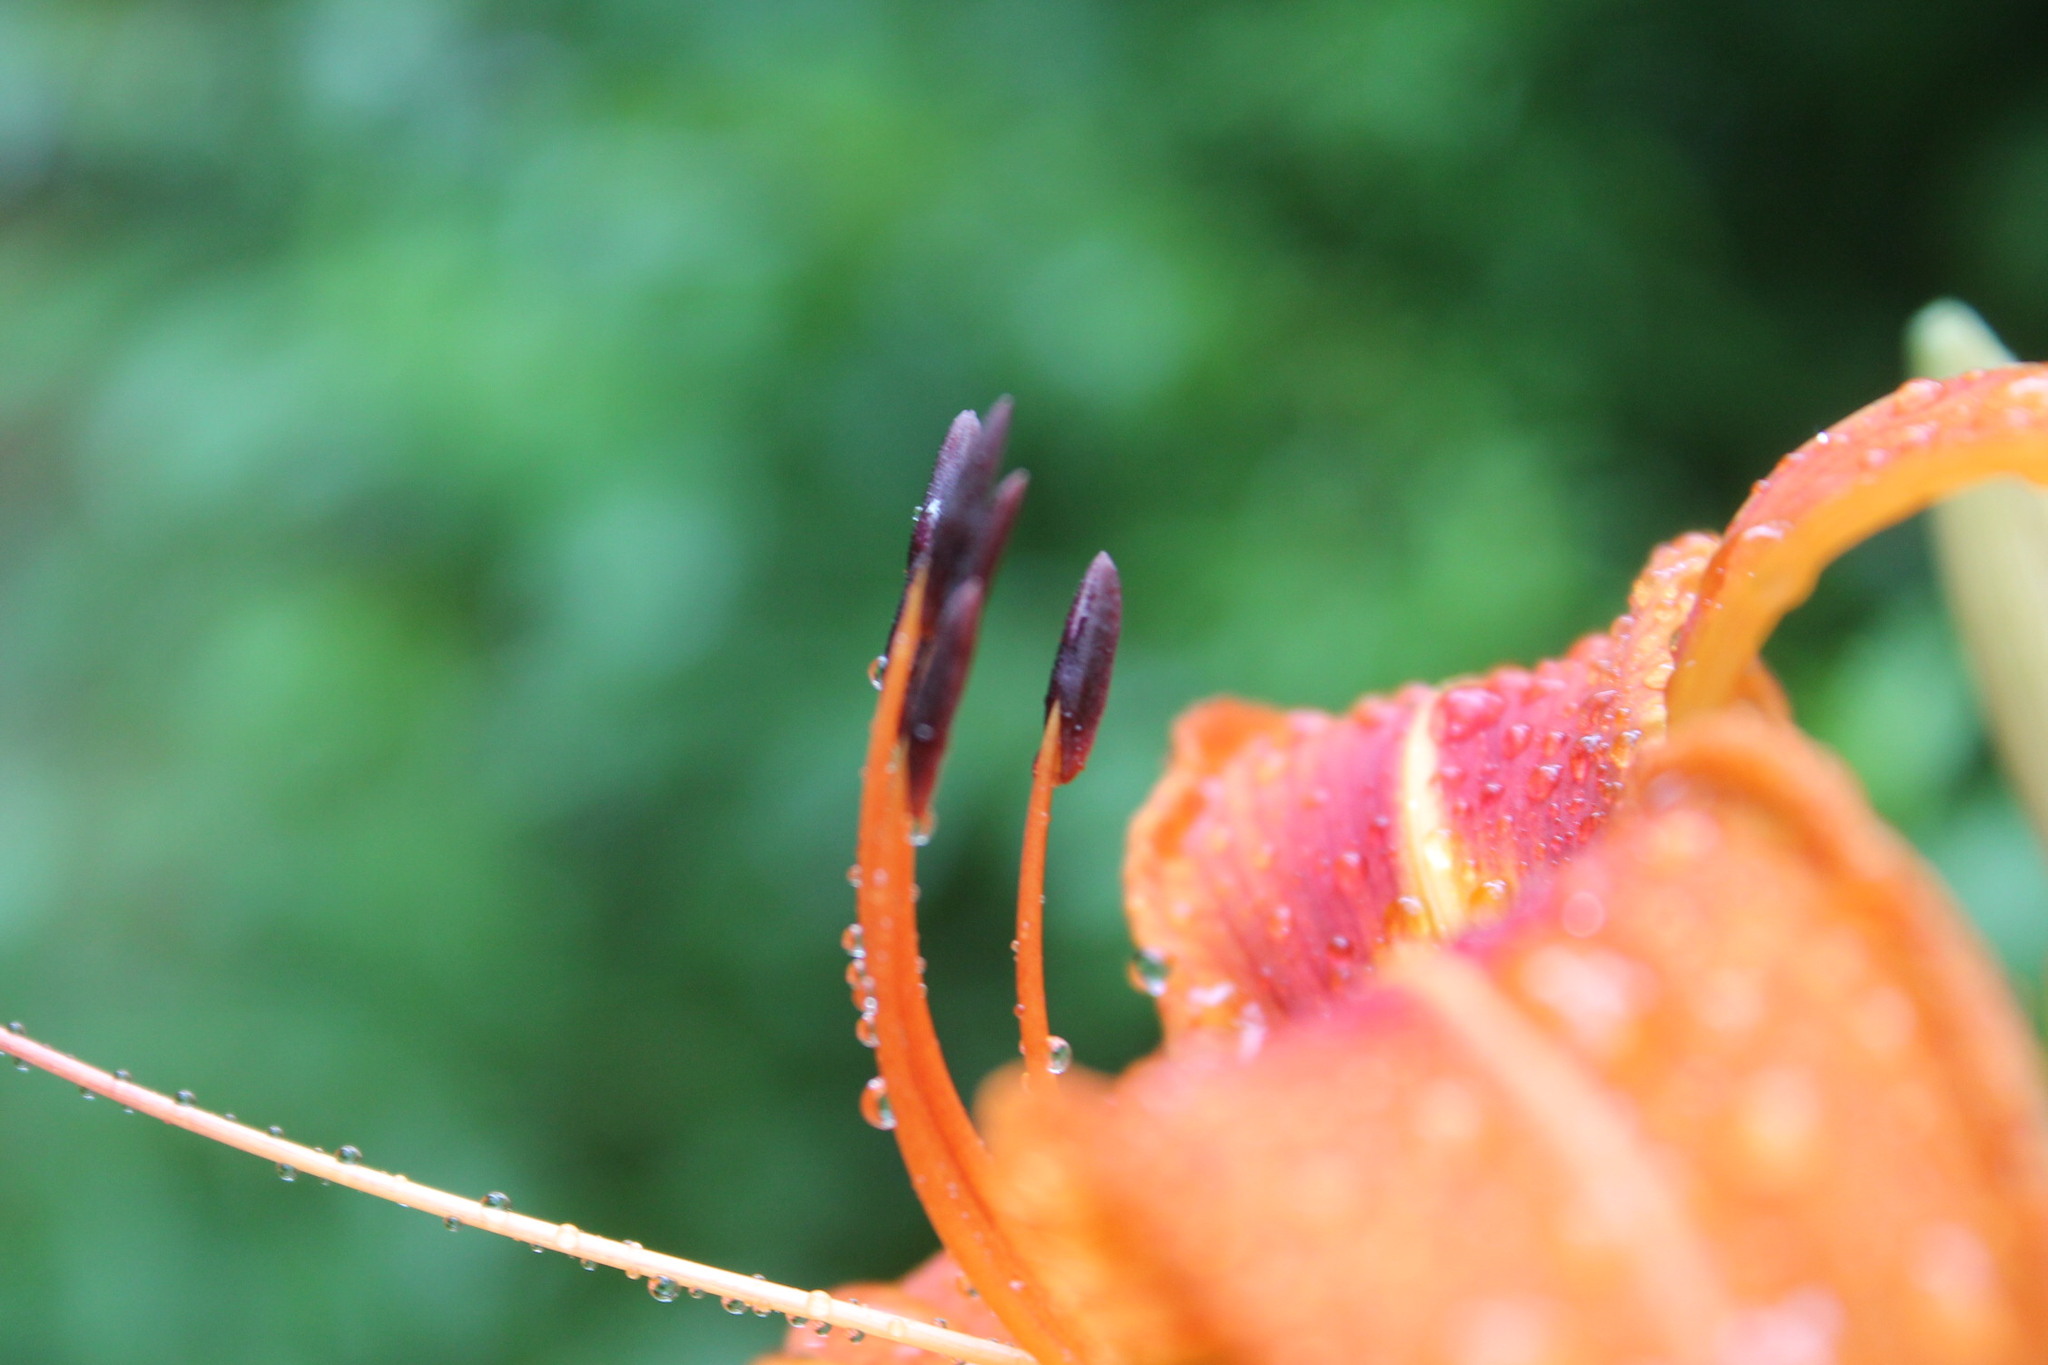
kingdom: Plantae
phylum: Tracheophyta
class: Liliopsida
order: Asparagales
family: Asphodelaceae
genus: Hemerocallis
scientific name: Hemerocallis fulva
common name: Orange day-lily
